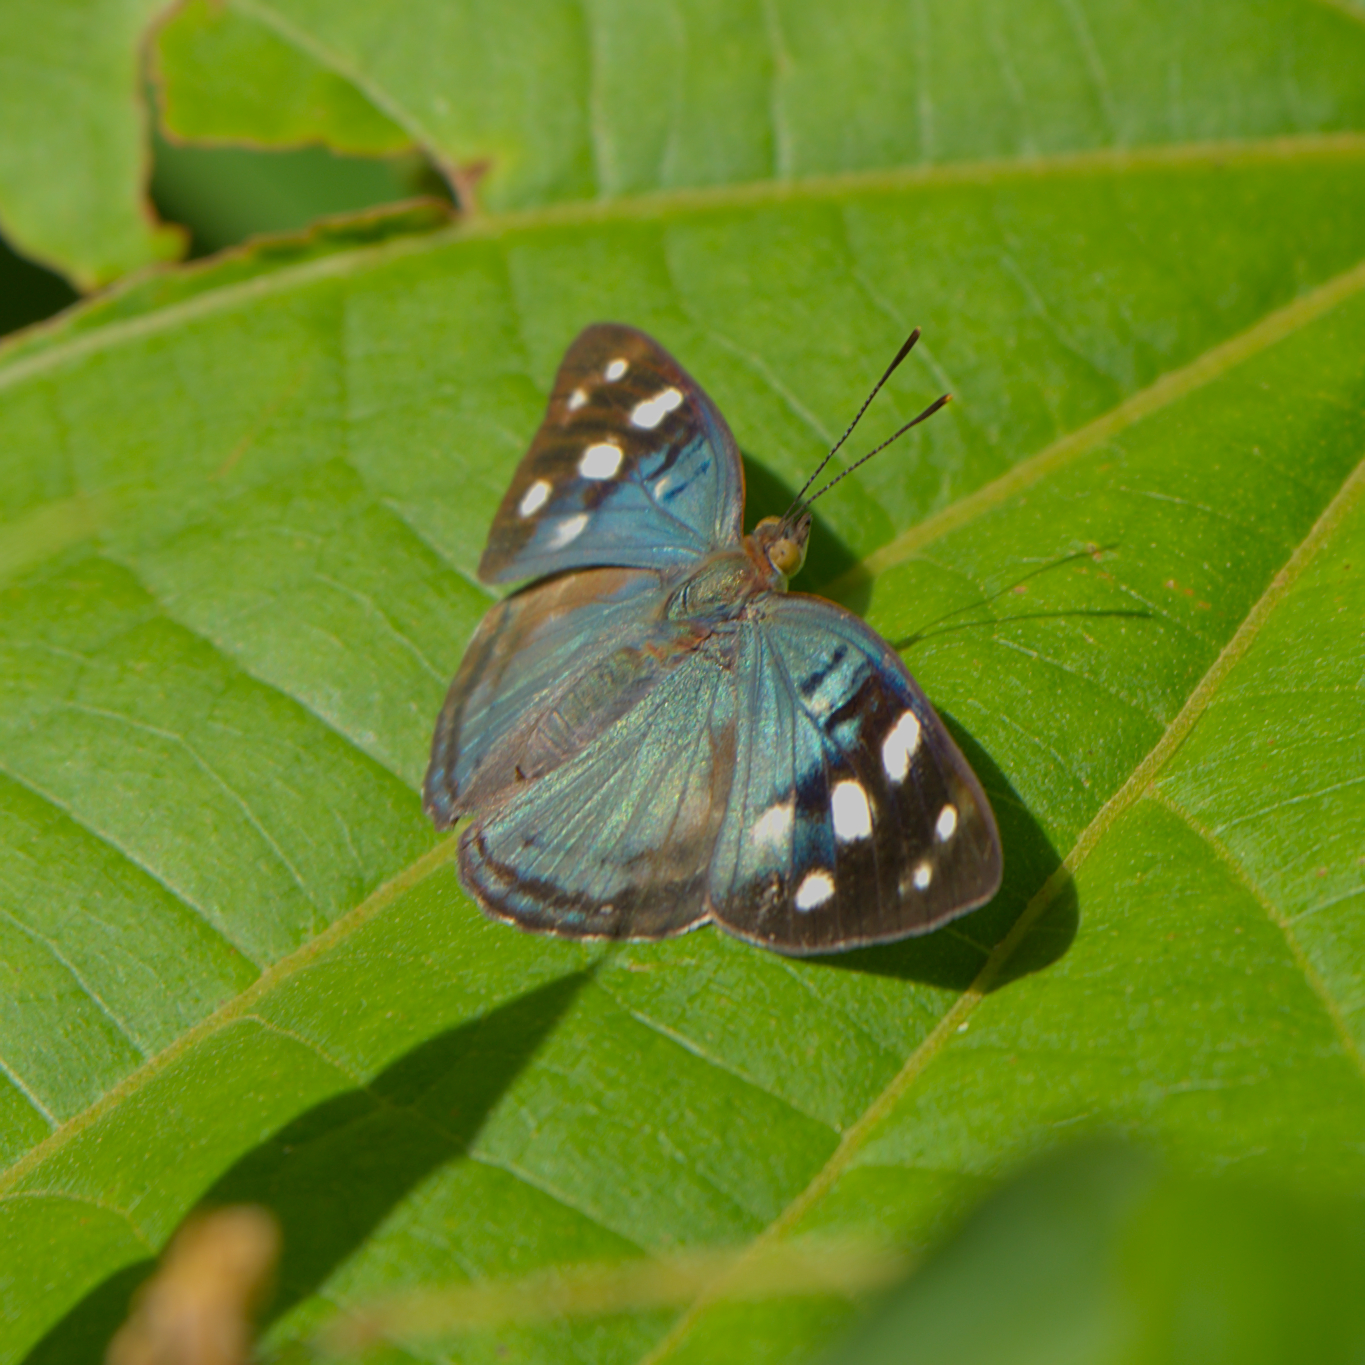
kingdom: Animalia
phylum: Arthropoda
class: Insecta
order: Lepidoptera
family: Nymphalidae
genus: Dynamine
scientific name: Dynamine sara
